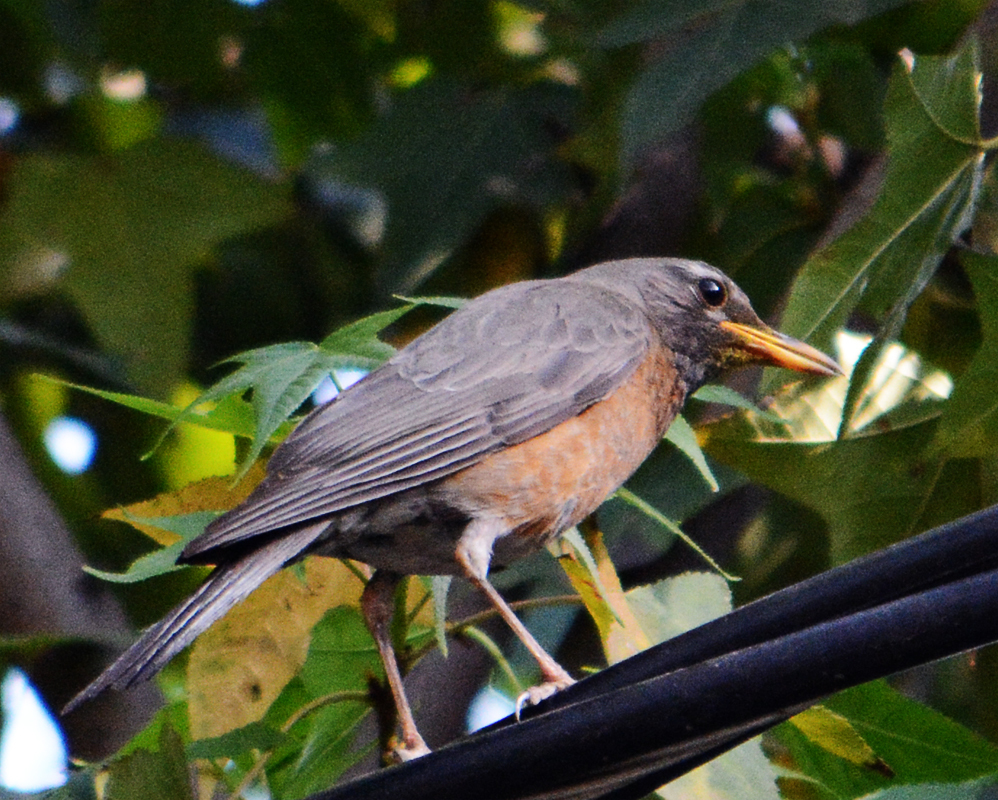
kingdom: Animalia
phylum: Chordata
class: Aves
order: Passeriformes
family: Turdidae
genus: Turdus
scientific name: Turdus migratorius
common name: American robin
